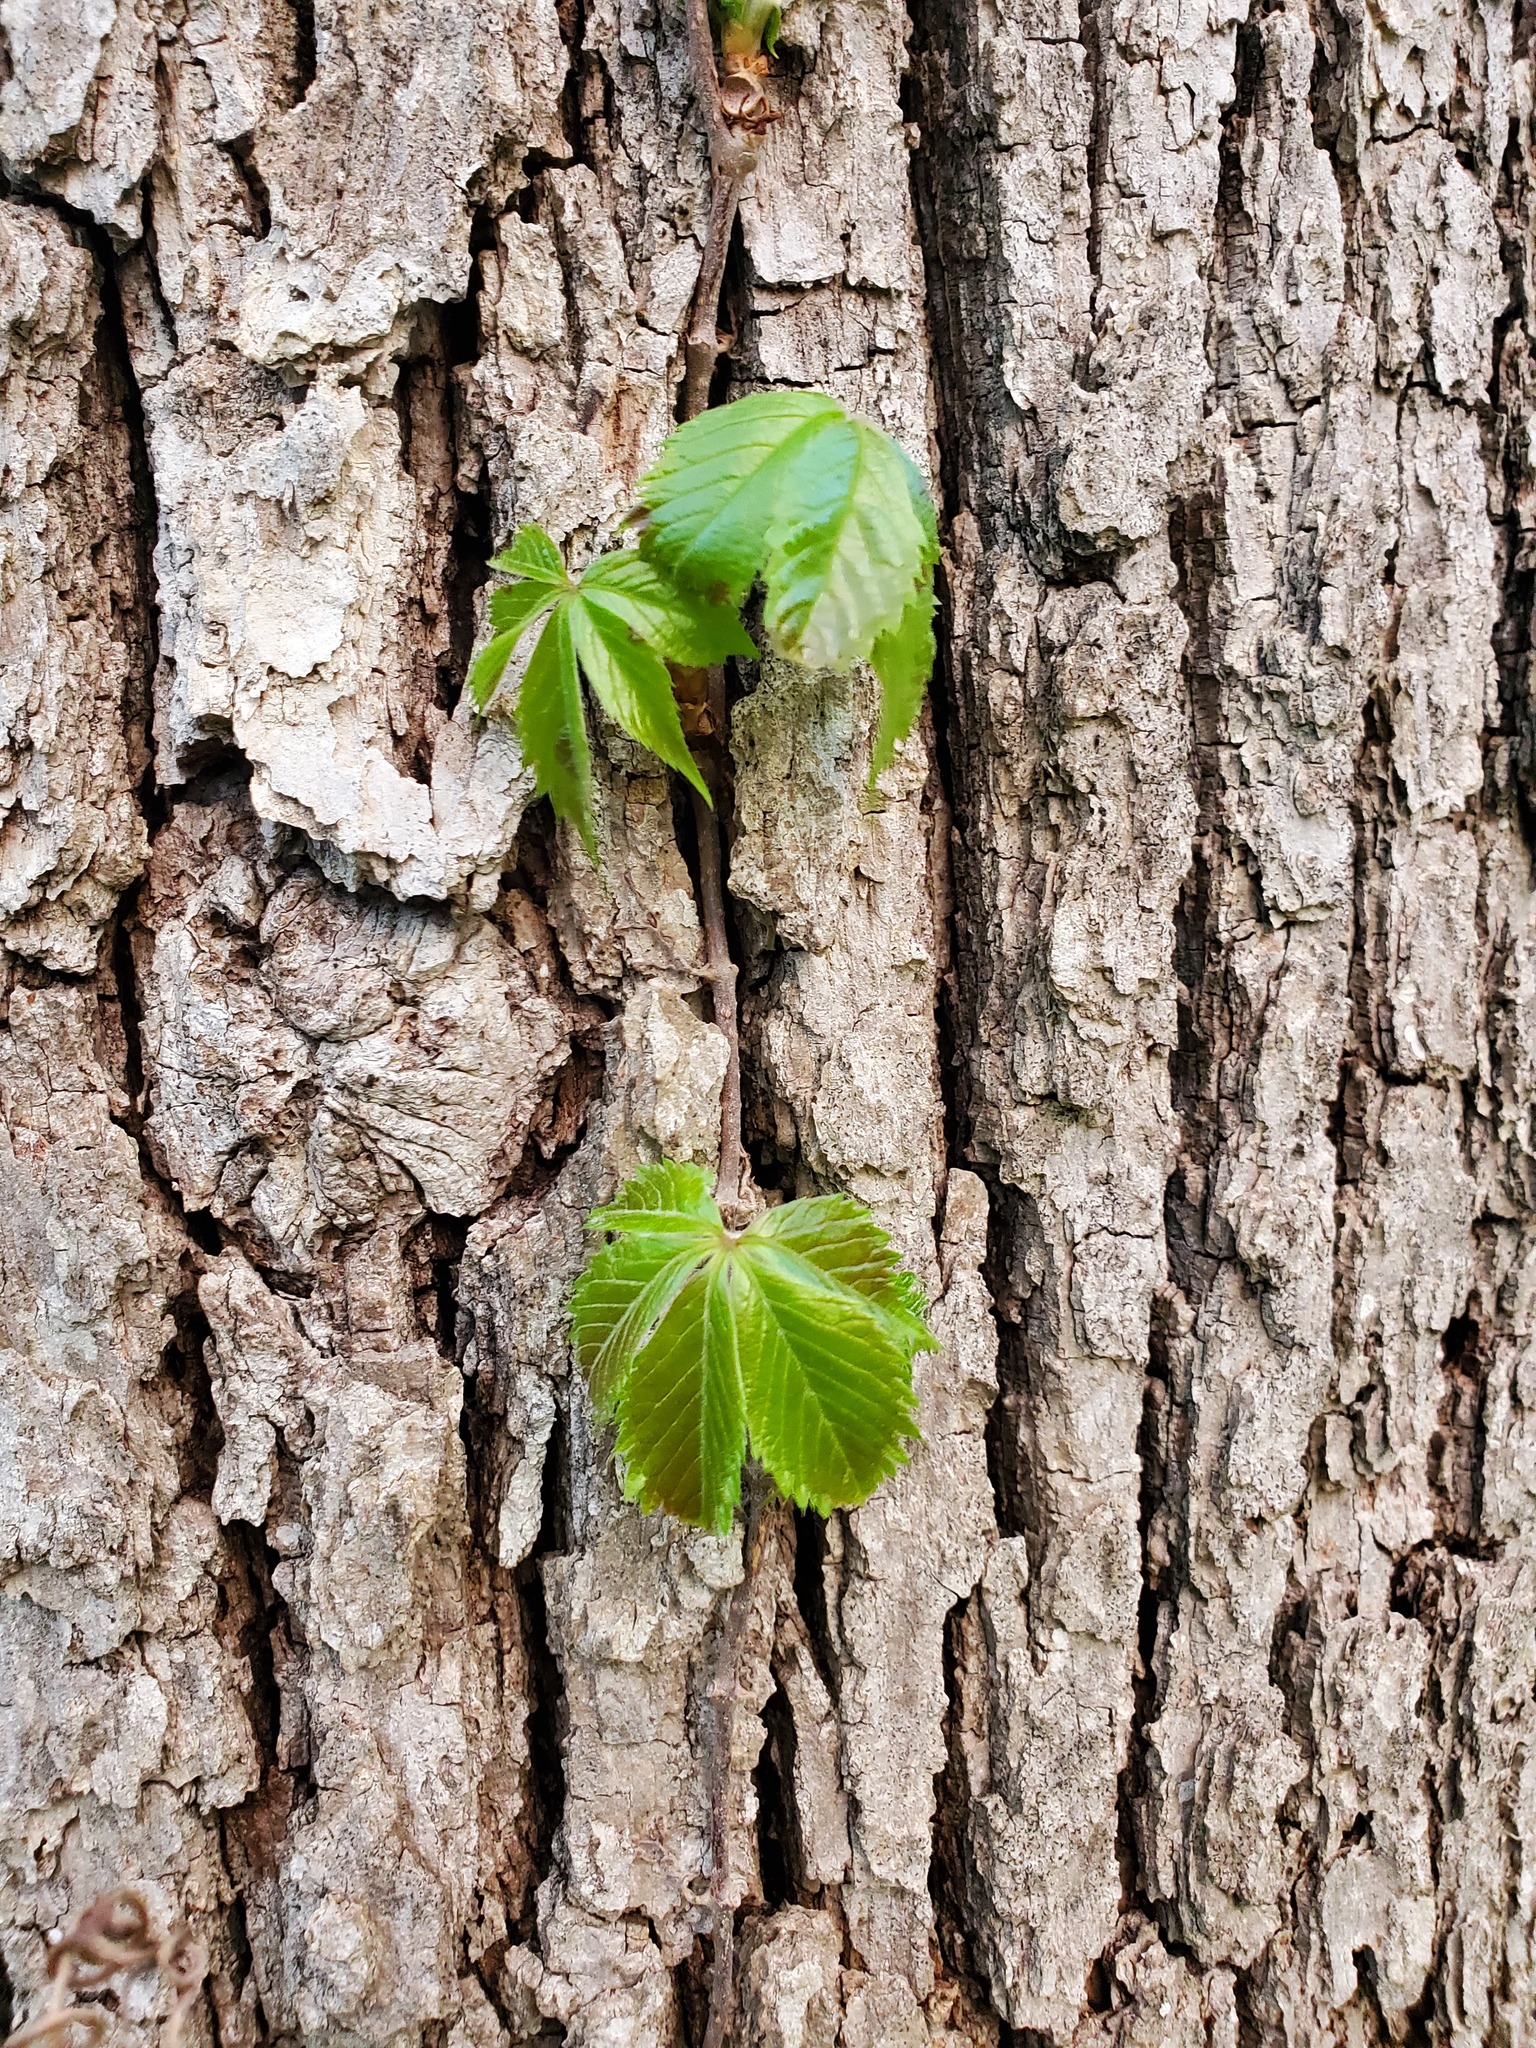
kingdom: Plantae
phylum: Tracheophyta
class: Magnoliopsida
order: Vitales
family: Vitaceae
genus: Parthenocissus
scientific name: Parthenocissus quinquefolia
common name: Virginia-creeper
